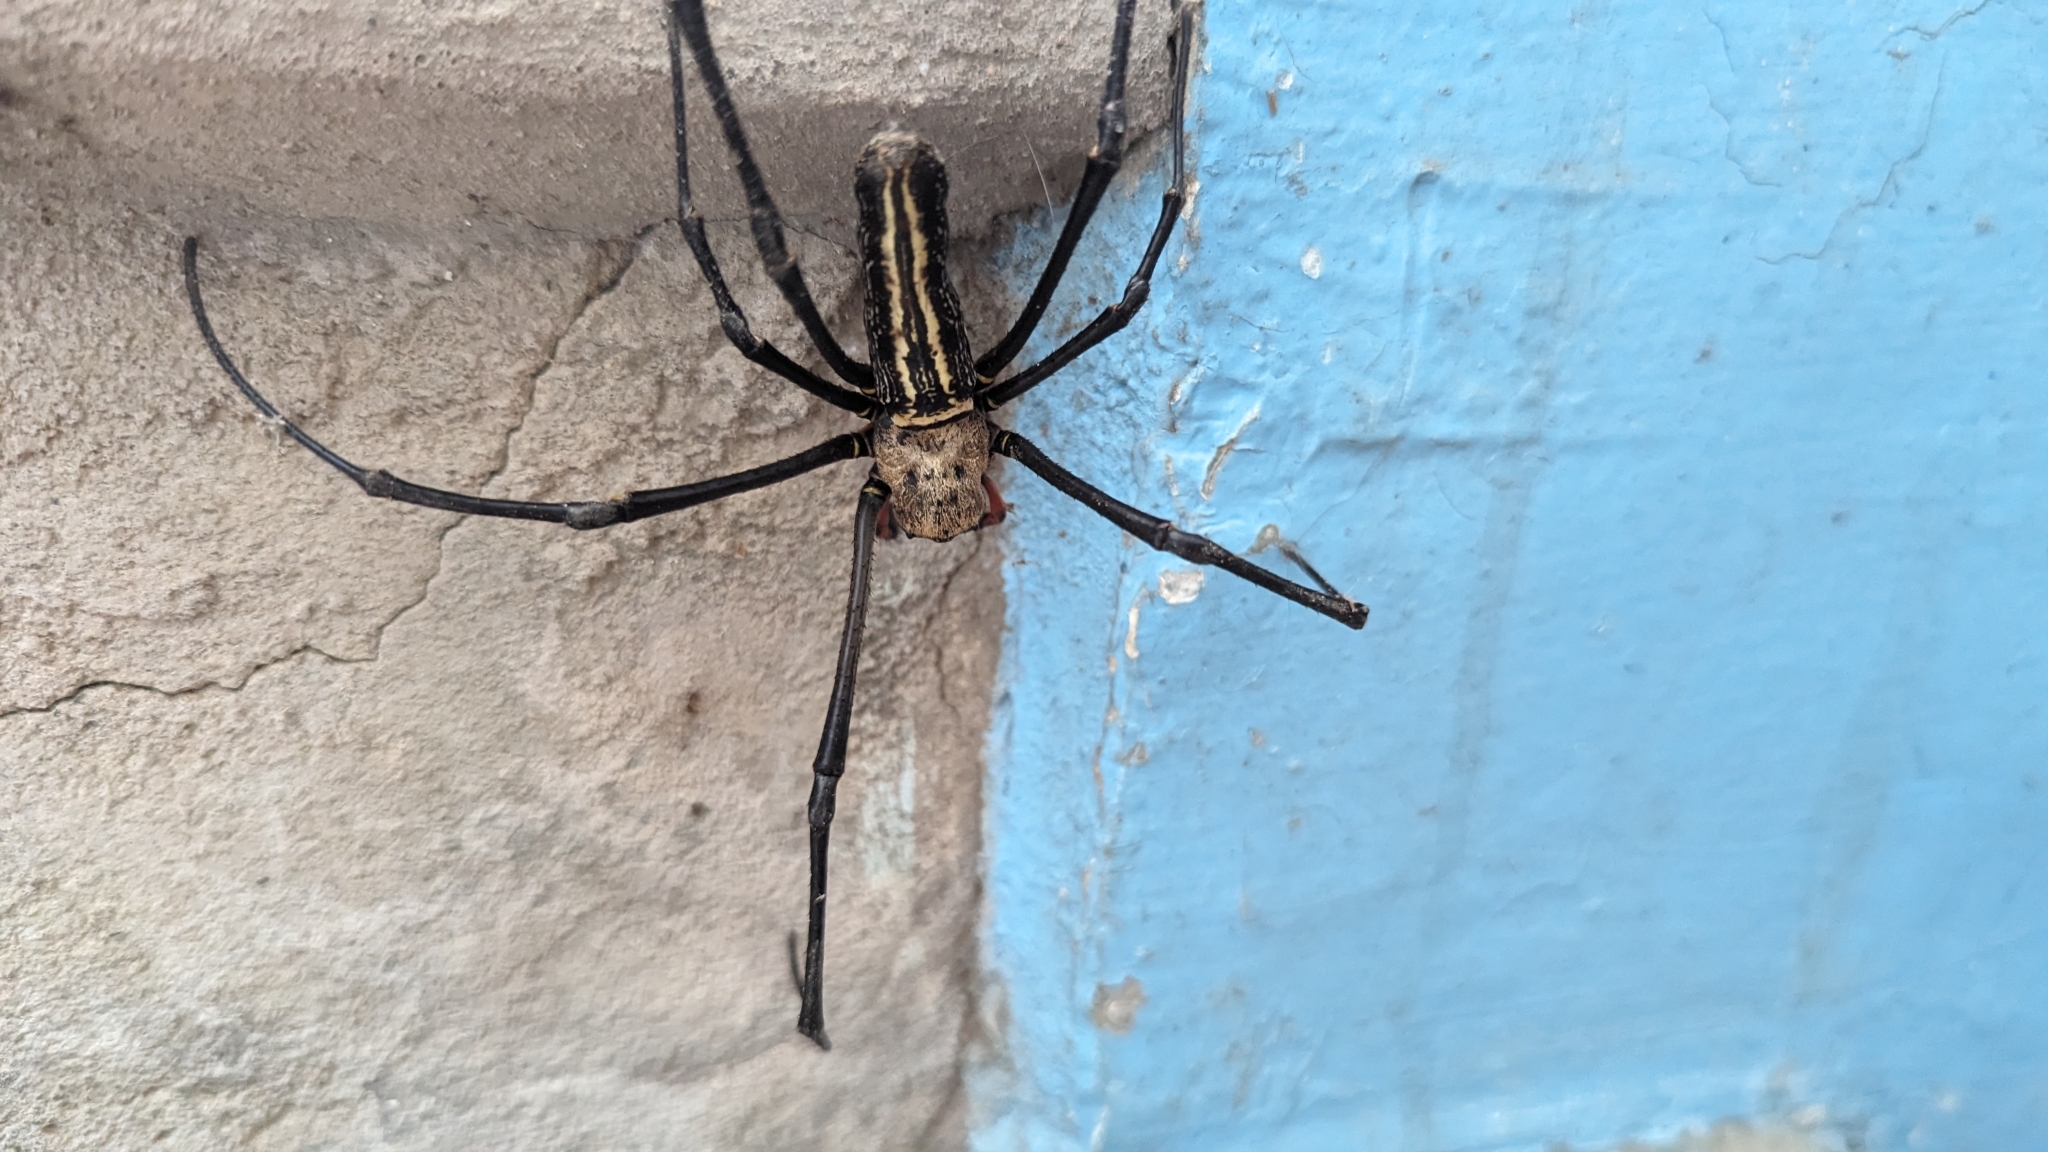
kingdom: Animalia
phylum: Arthropoda
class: Arachnida
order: Araneae
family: Araneidae
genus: Nephila
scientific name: Nephila pilipes
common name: Giant golden orb weaver
